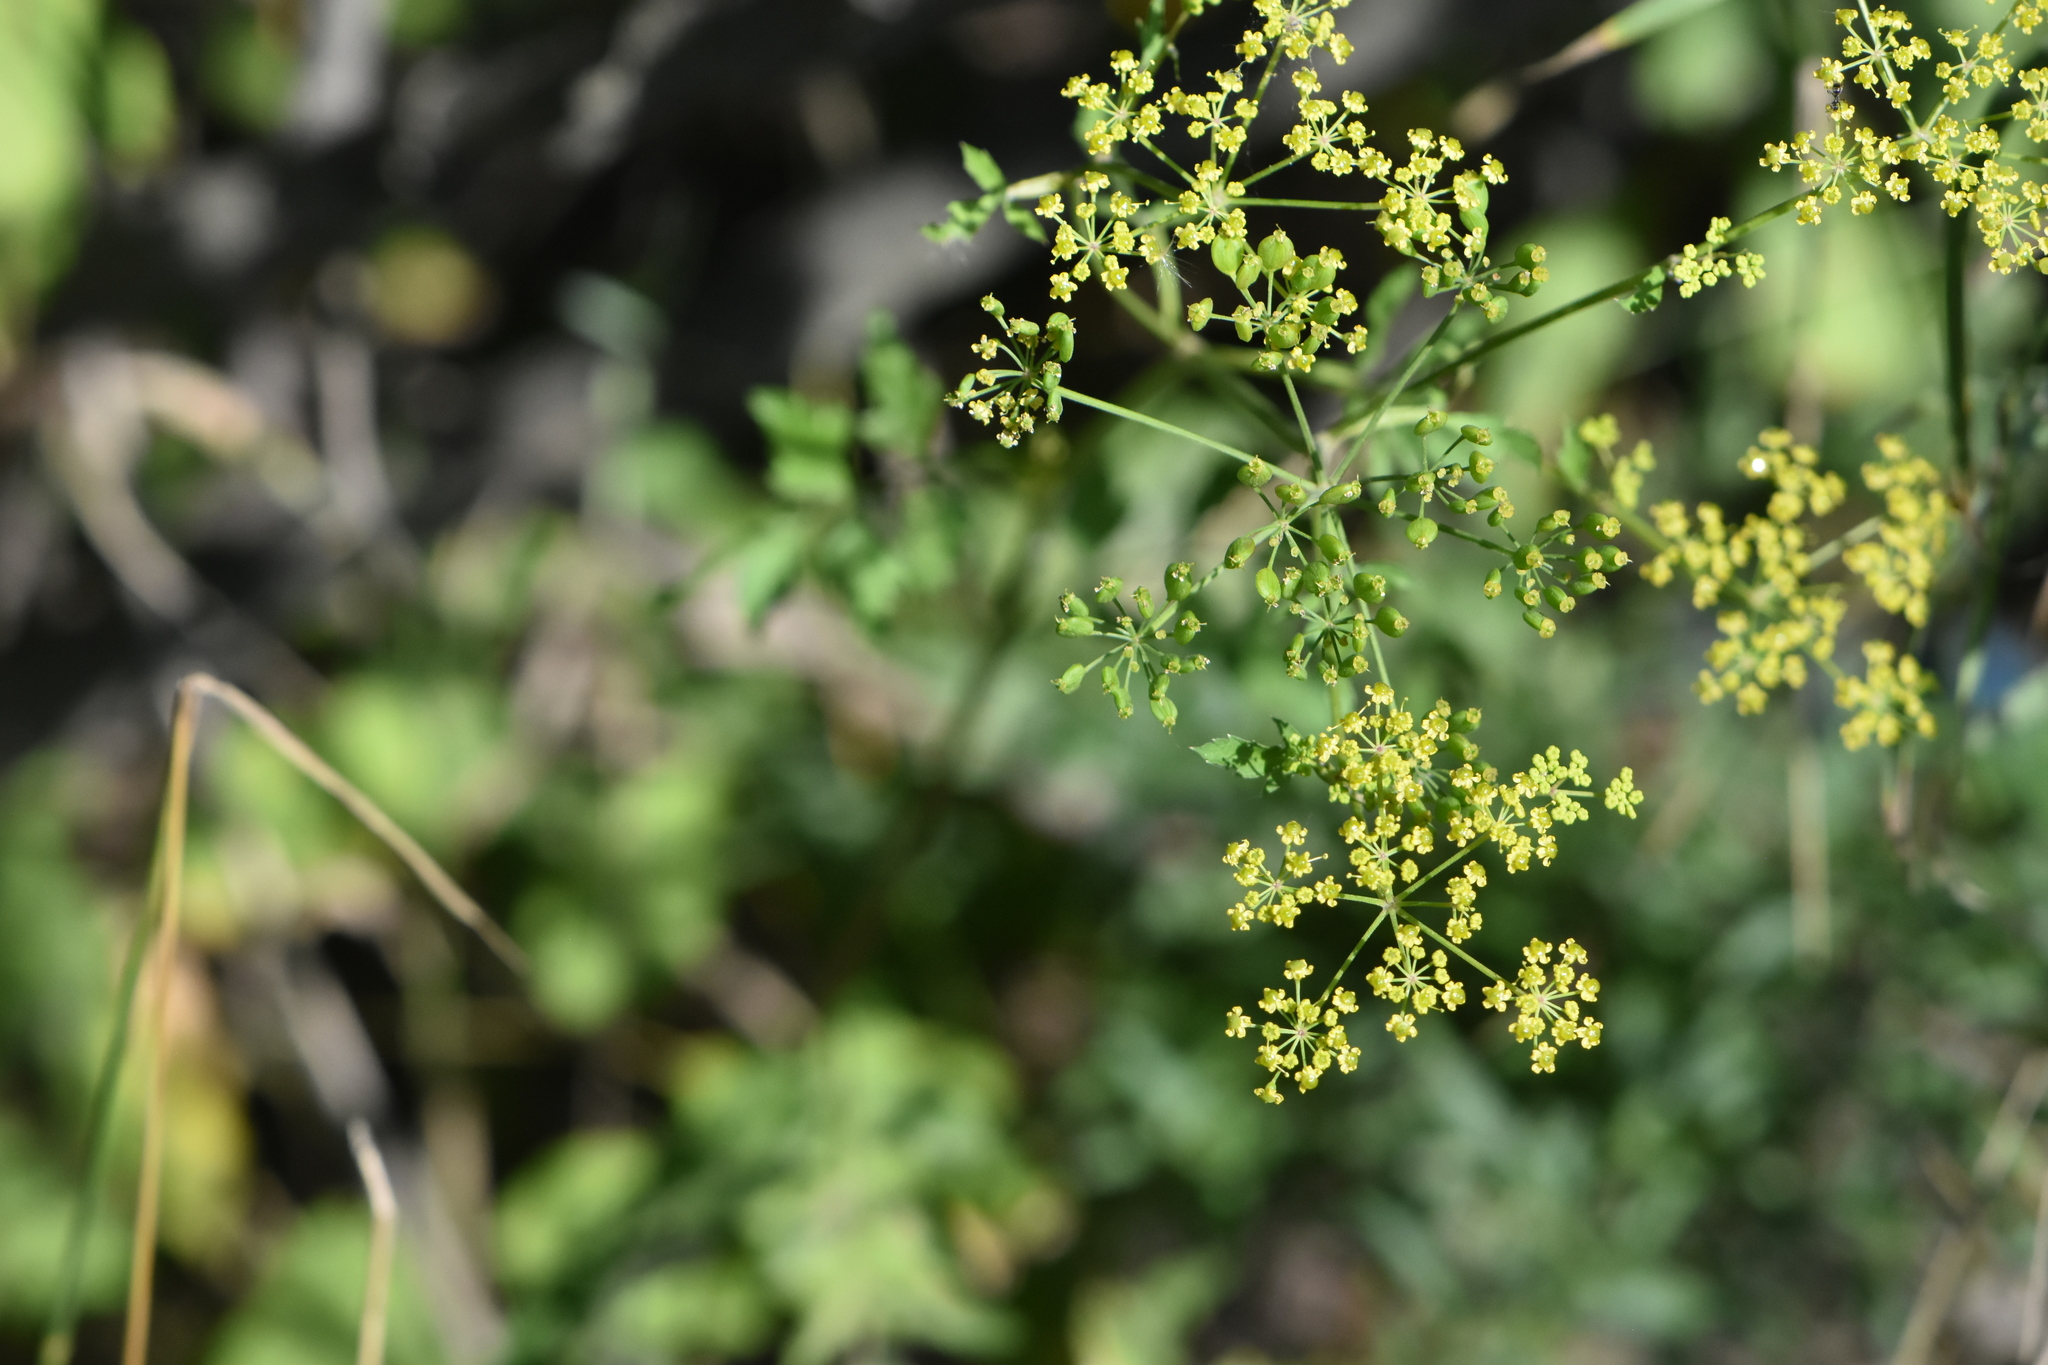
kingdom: Plantae
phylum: Tracheophyta
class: Magnoliopsida
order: Apiales
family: Apiaceae
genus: Pastinaca
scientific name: Pastinaca sativa
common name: Wild parsnip
